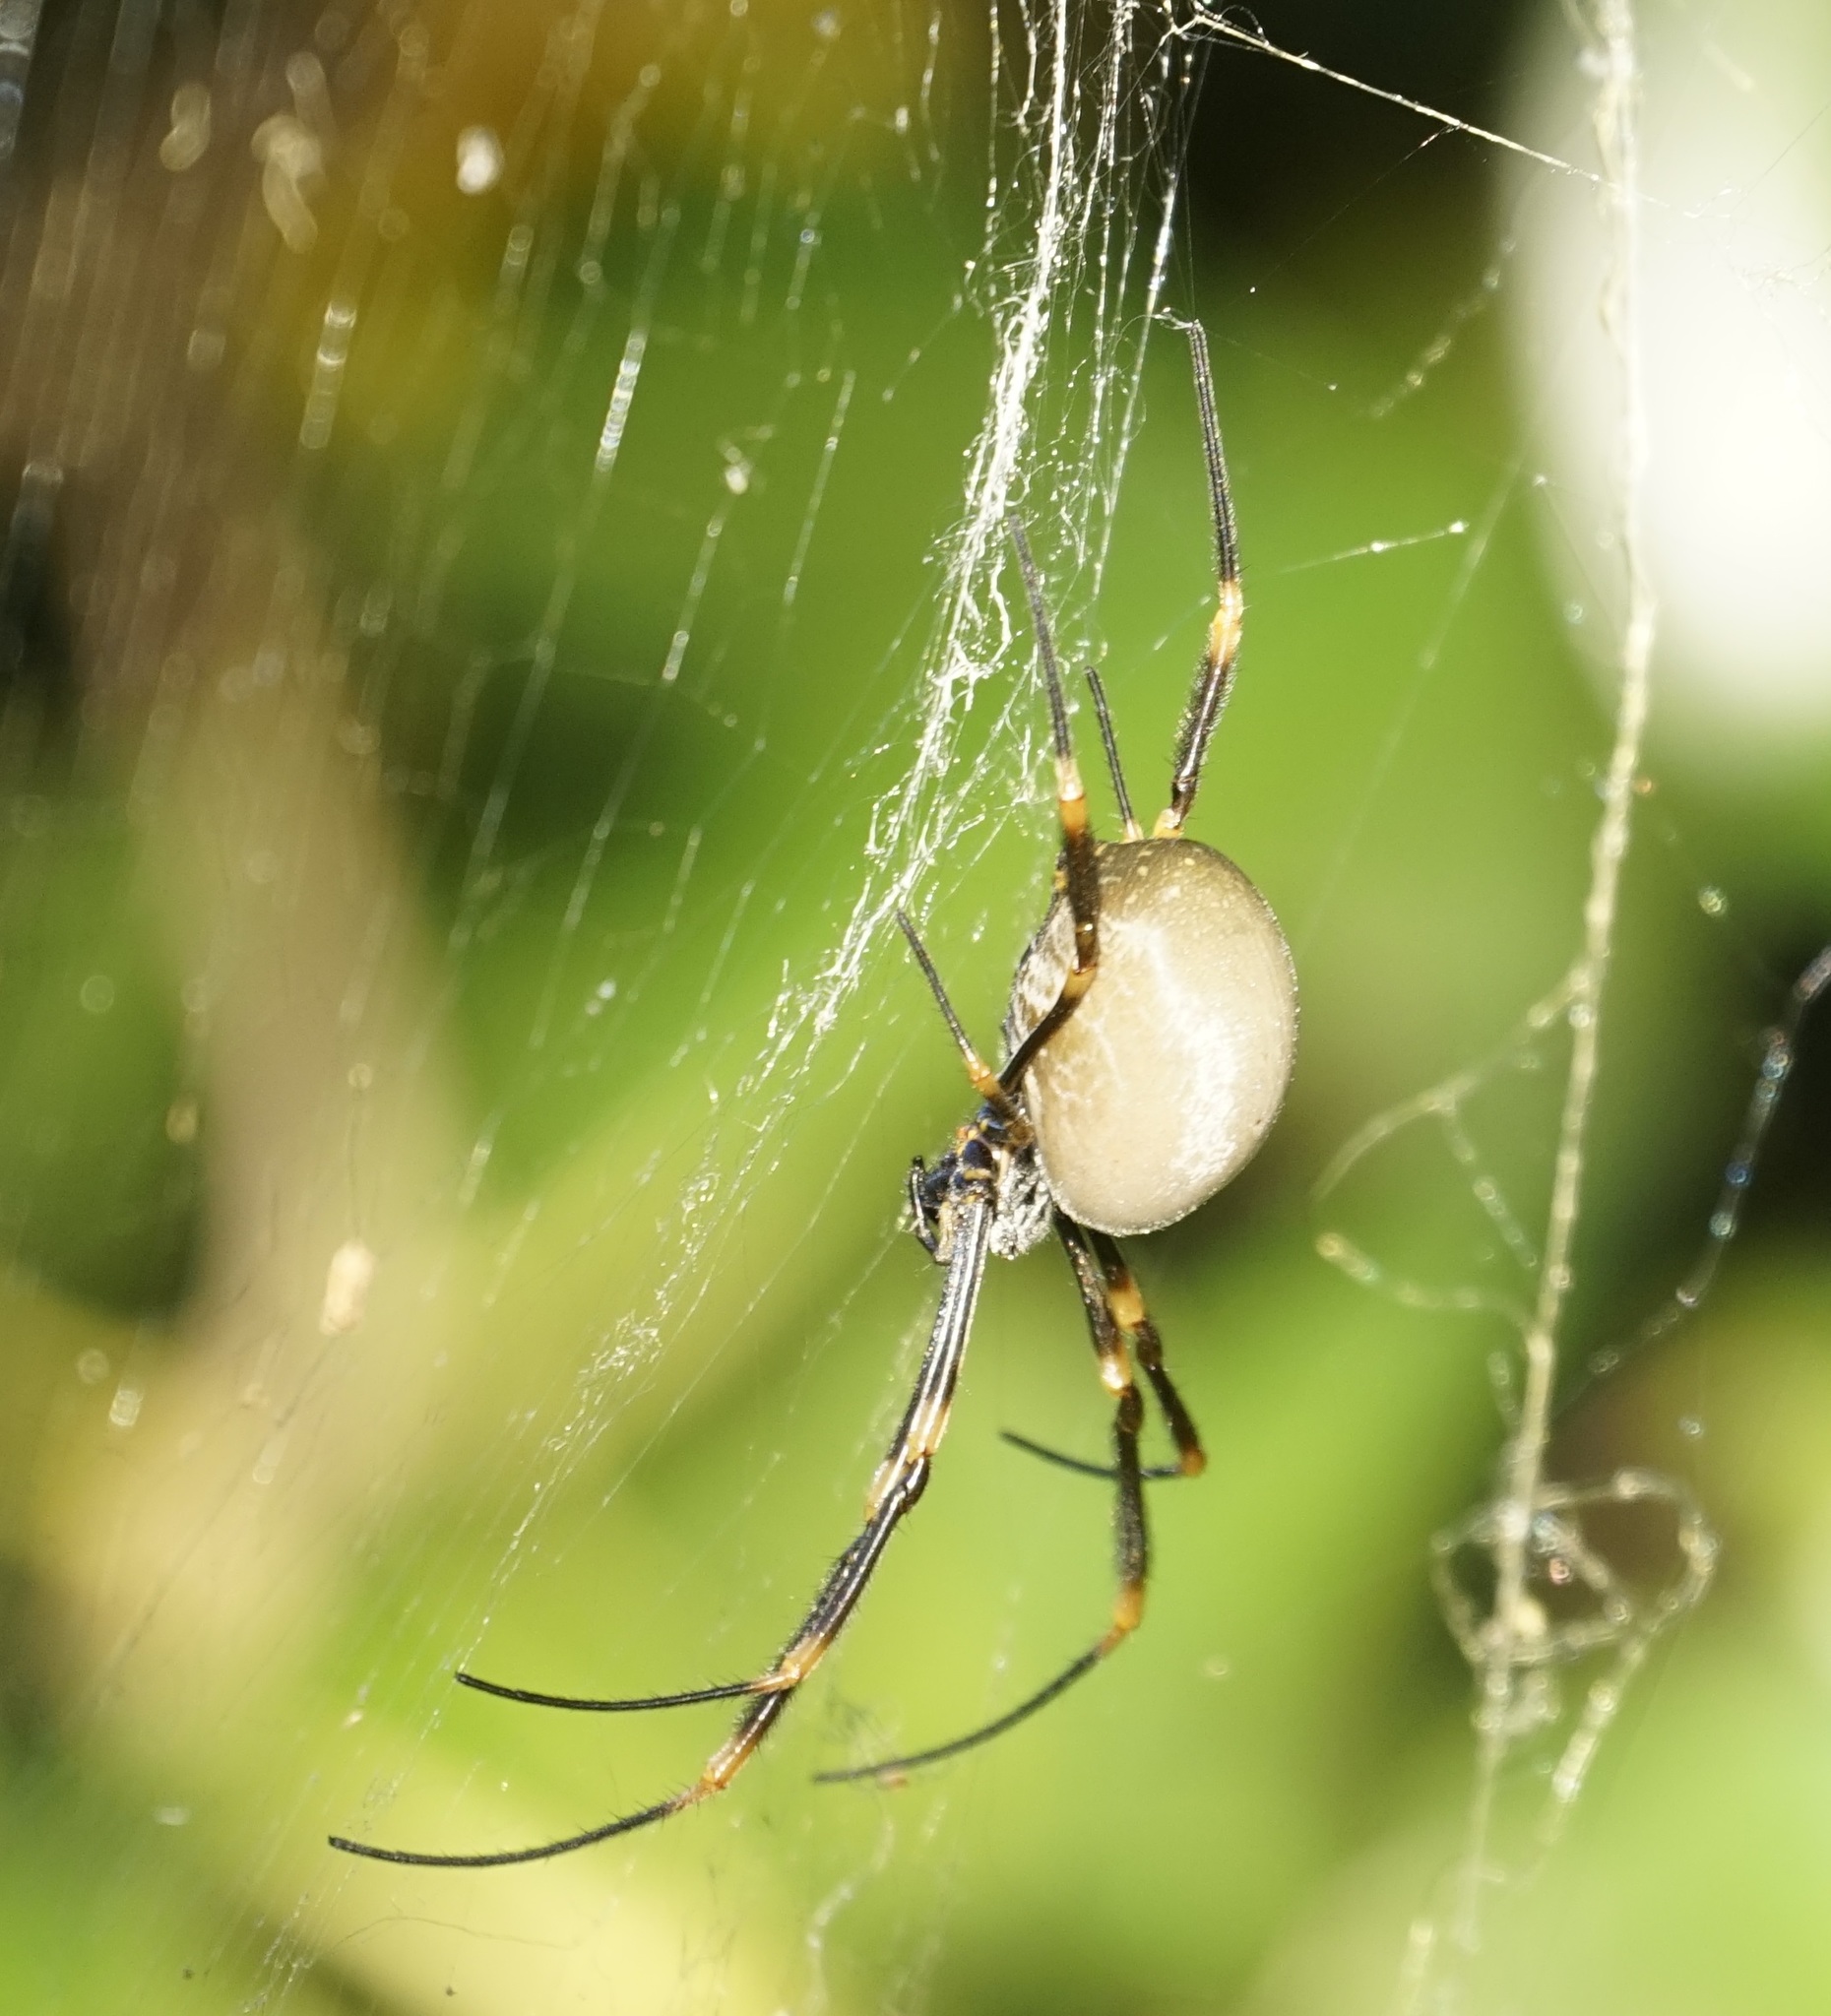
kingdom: Animalia
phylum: Arthropoda
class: Arachnida
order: Araneae
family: Araneidae
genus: Trichonephila
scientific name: Trichonephila plumipes
